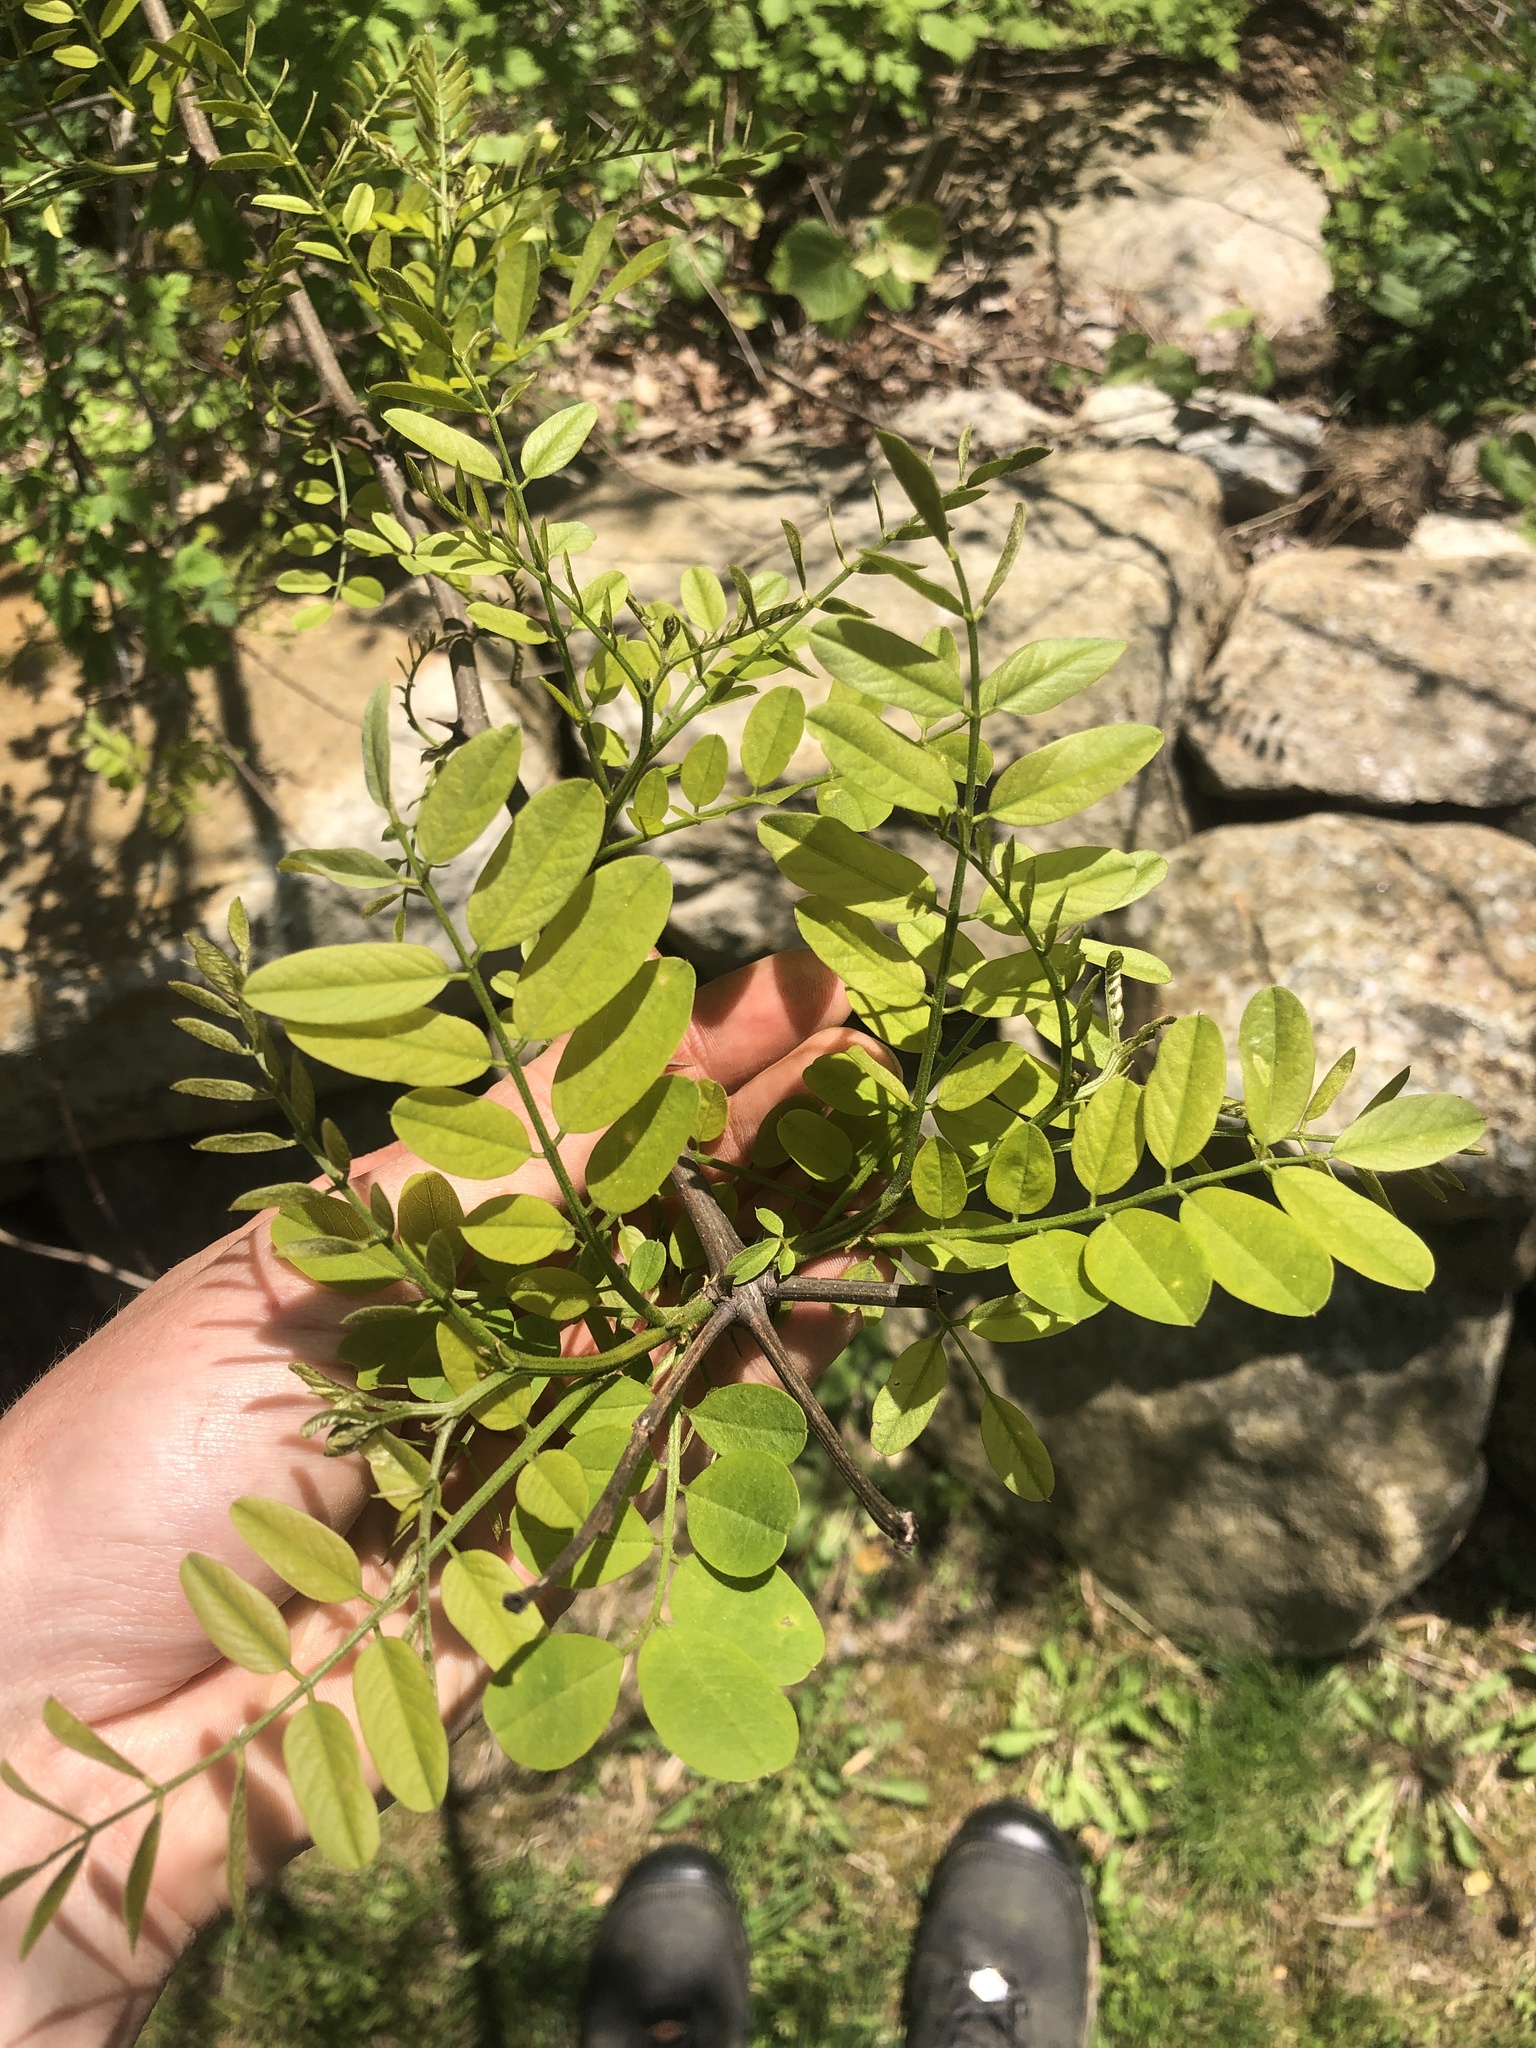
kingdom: Plantae
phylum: Tracheophyta
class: Magnoliopsida
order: Fabales
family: Fabaceae
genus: Robinia
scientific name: Robinia pseudoacacia
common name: Black locust
